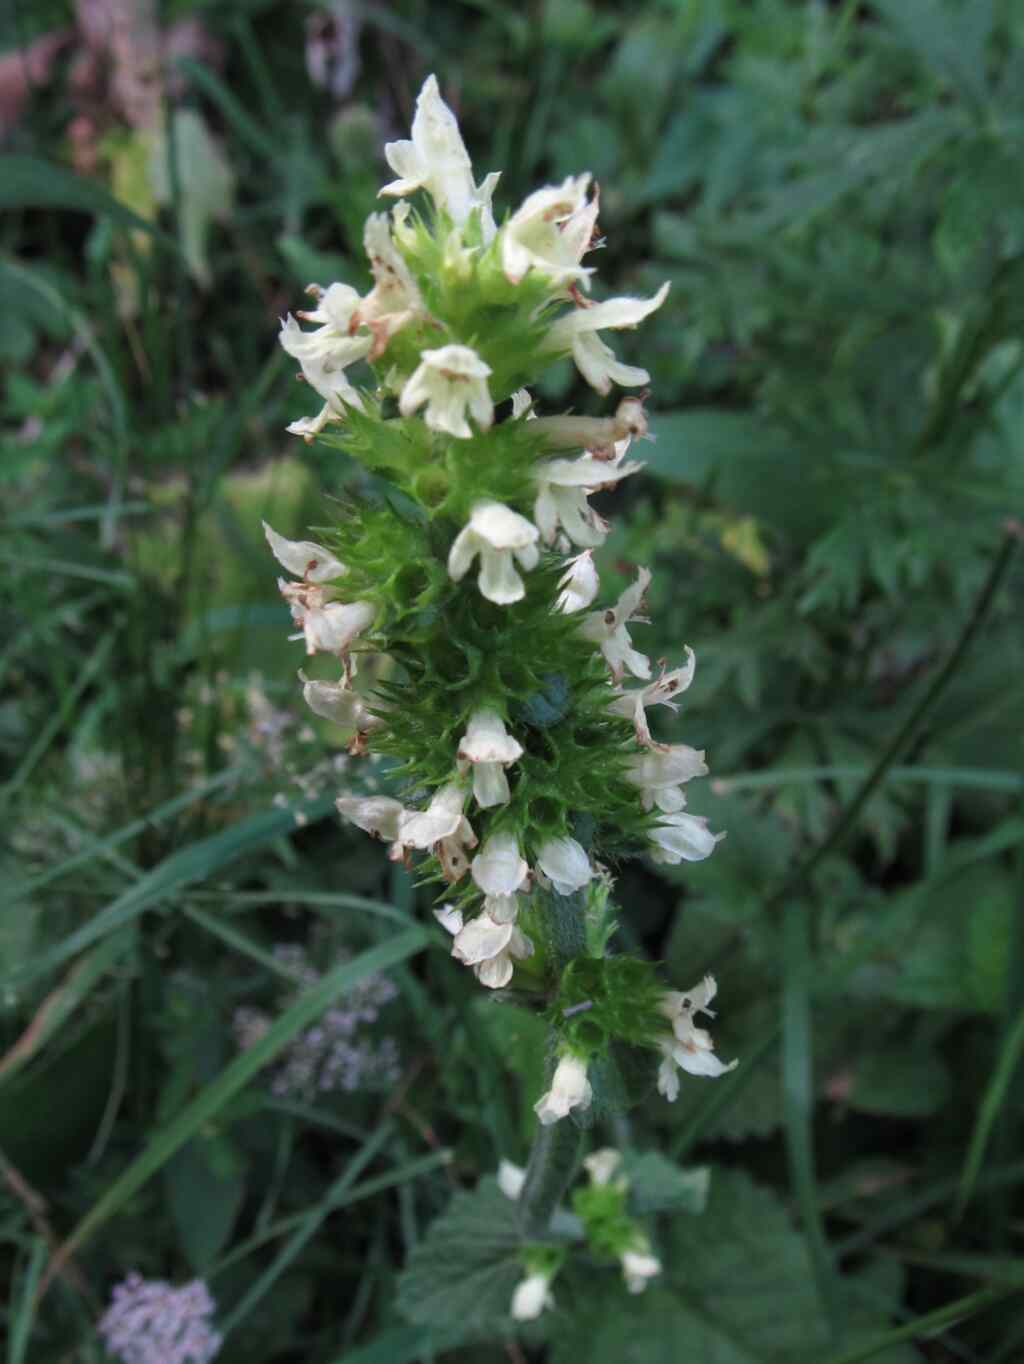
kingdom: Plantae
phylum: Tracheophyta
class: Magnoliopsida
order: Lamiales
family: Lamiaceae
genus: Betonica
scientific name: Betonica alopecuros
